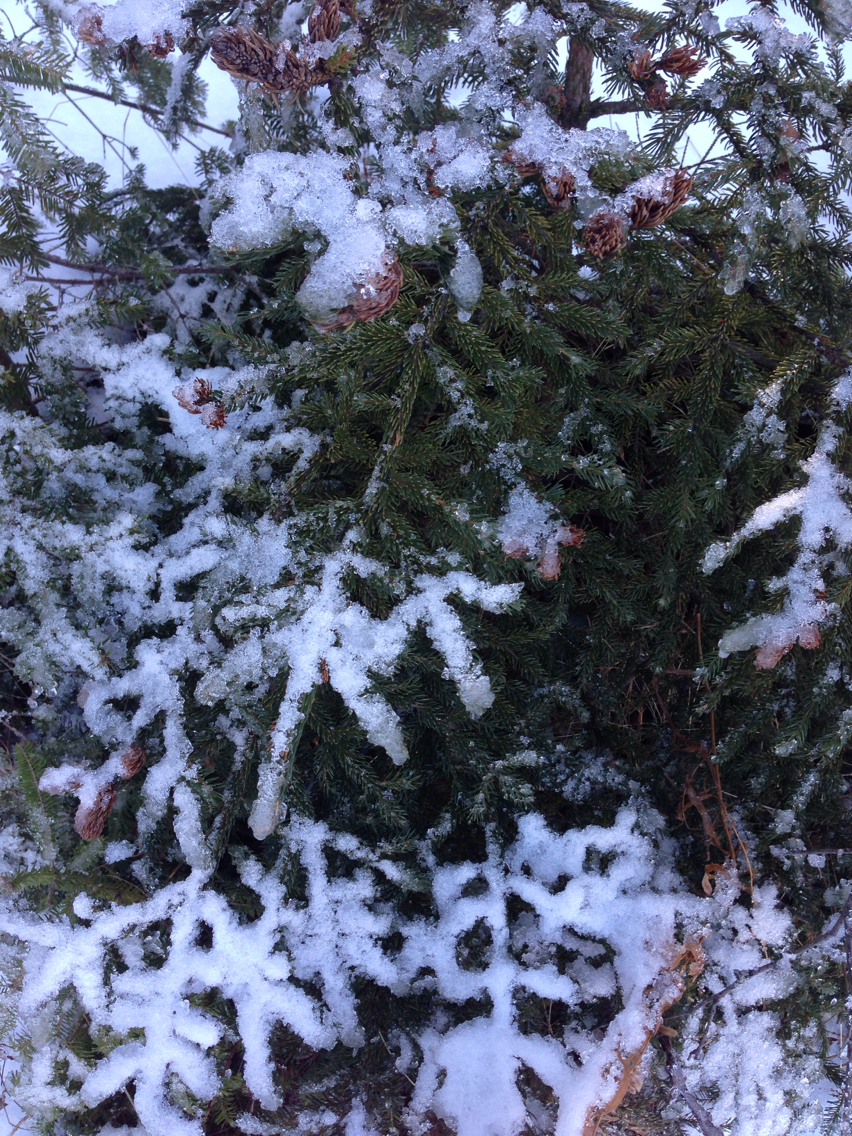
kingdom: Plantae
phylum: Tracheophyta
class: Pinopsida
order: Pinales
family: Pinaceae
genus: Picea
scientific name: Picea rubens
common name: Red spruce
